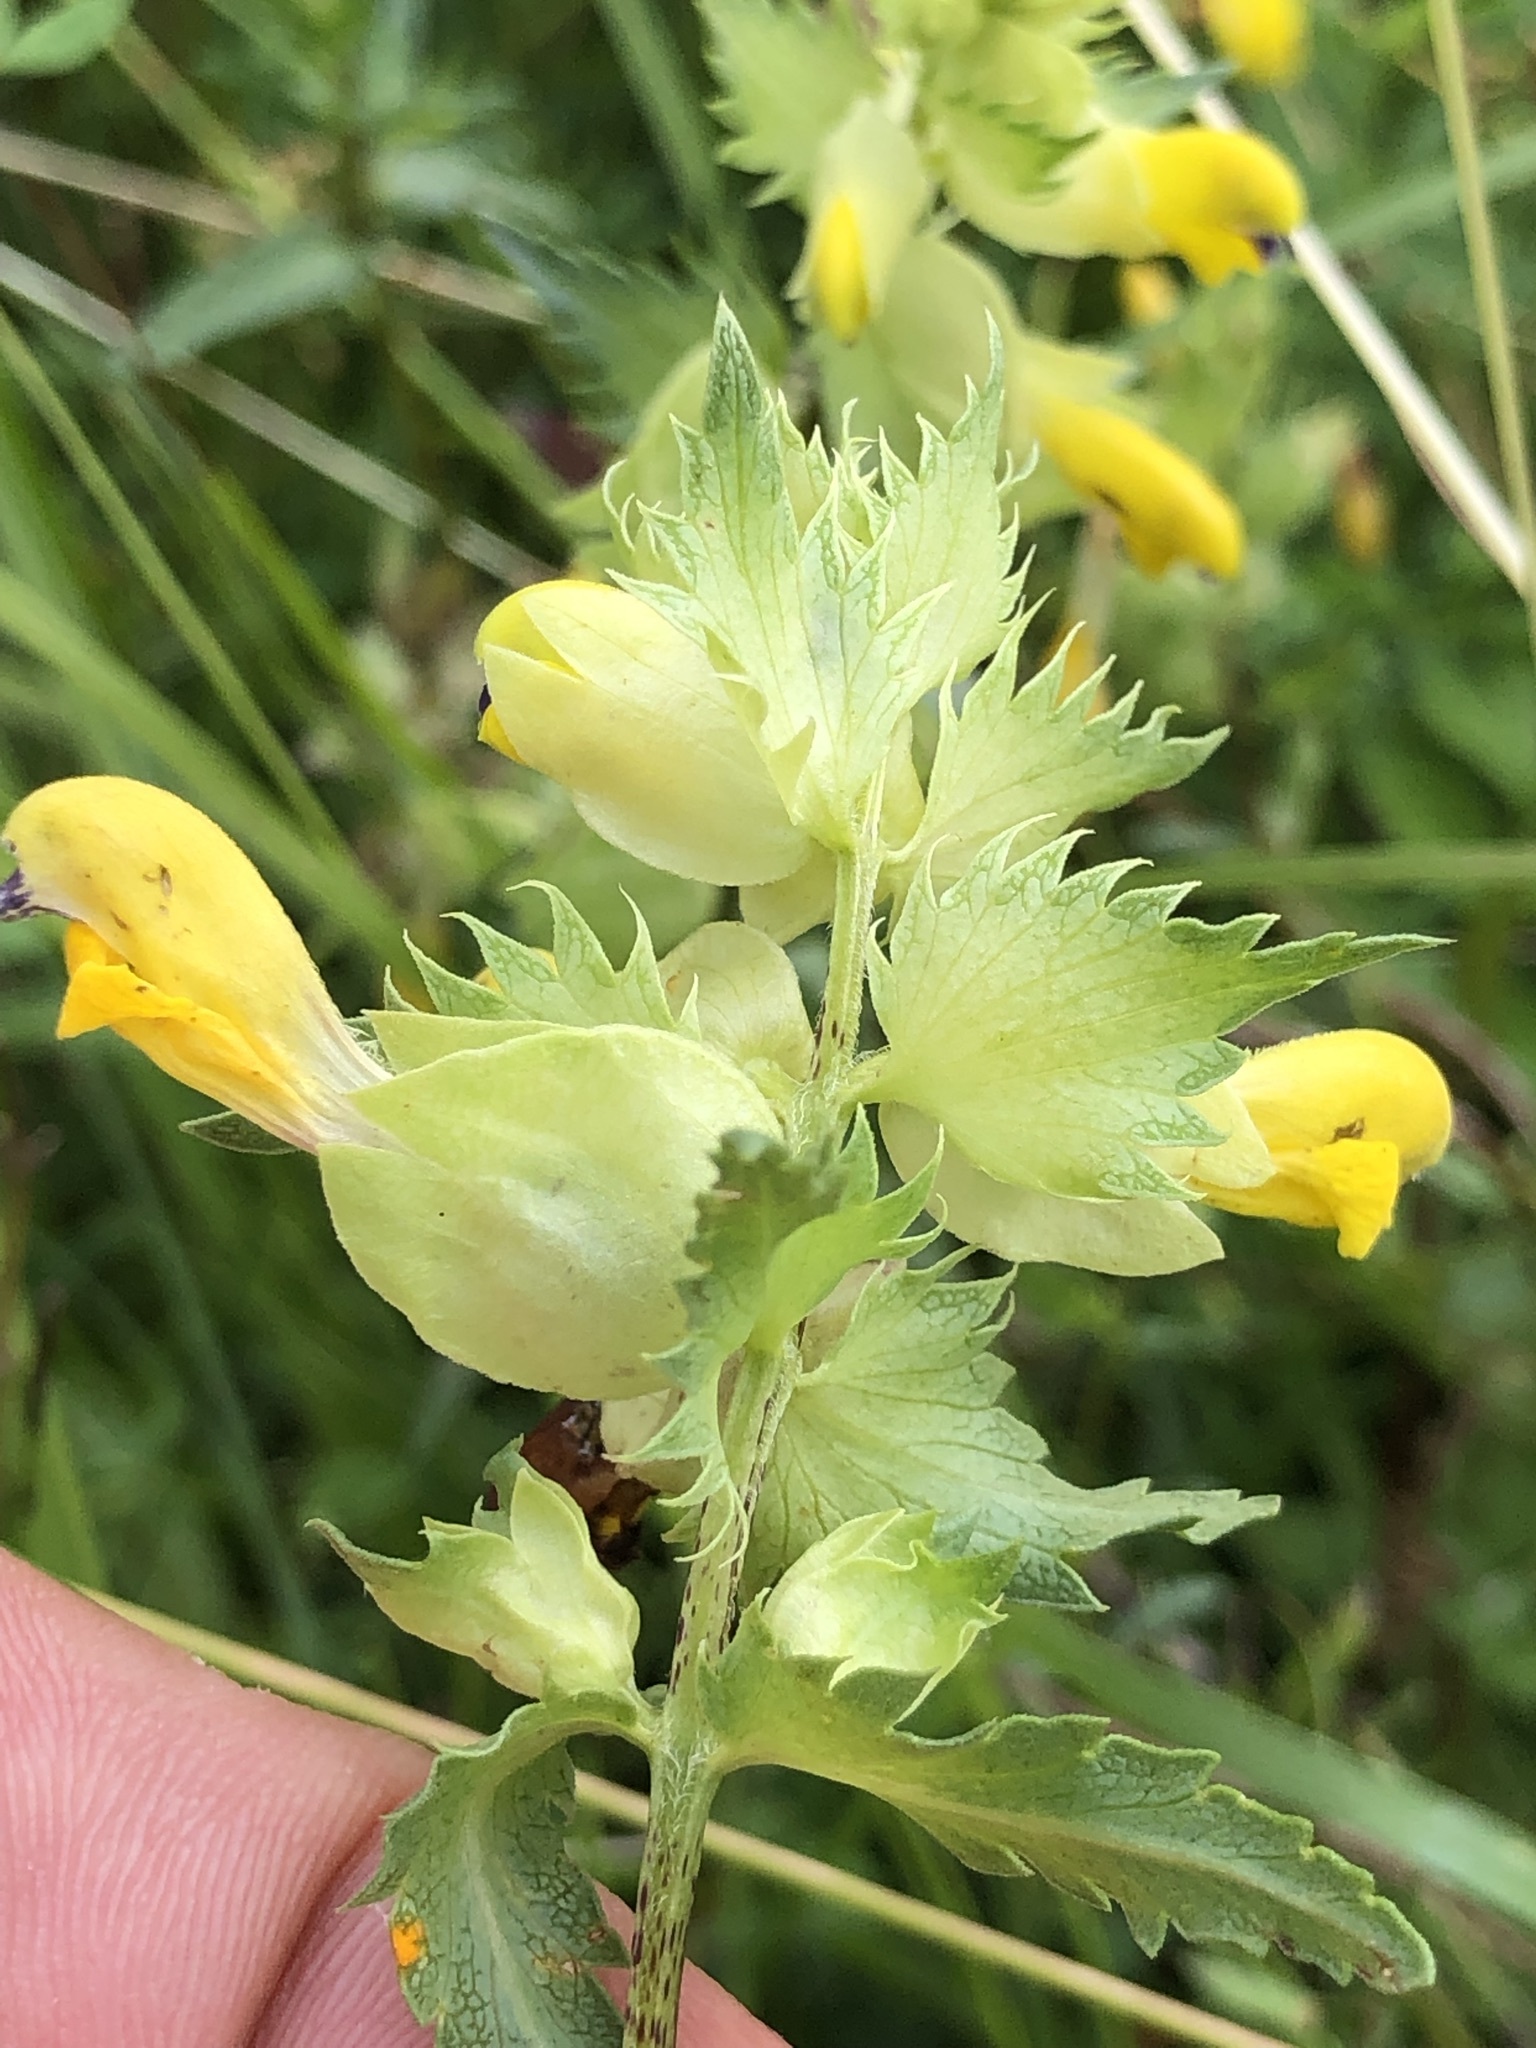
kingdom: Plantae
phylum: Tracheophyta
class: Magnoliopsida
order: Lamiales
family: Orobanchaceae
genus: Rhinanthus
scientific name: Rhinanthus glacialis
